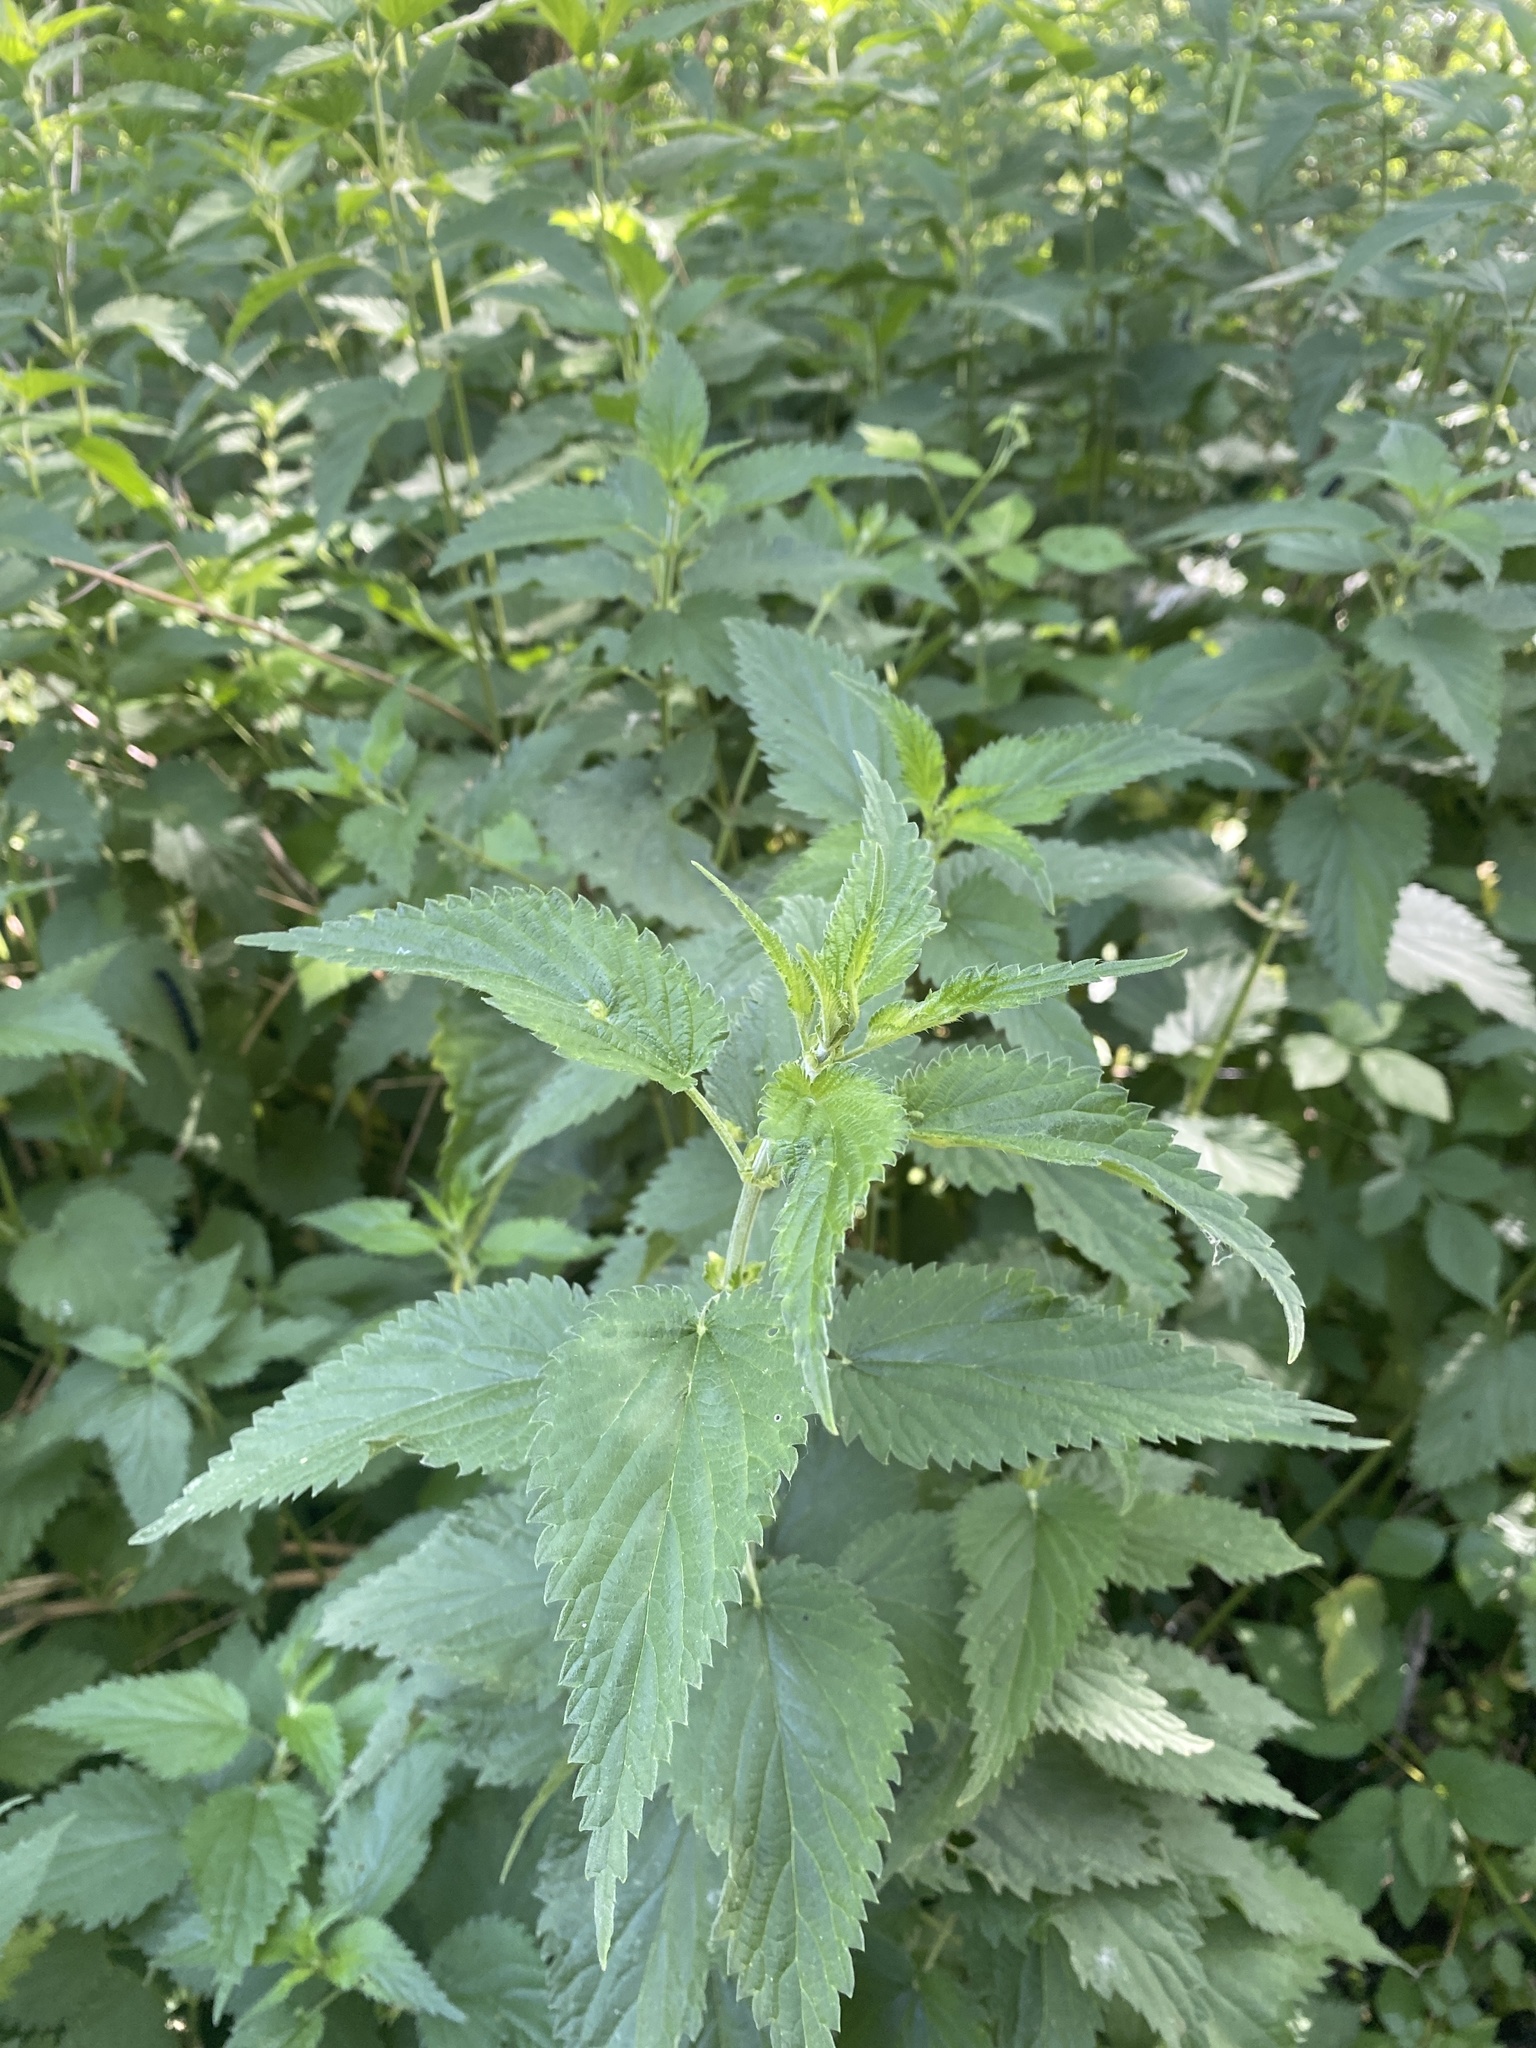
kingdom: Plantae
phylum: Tracheophyta
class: Magnoliopsida
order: Rosales
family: Urticaceae
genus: Urtica
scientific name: Urtica dioica
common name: Common nettle
